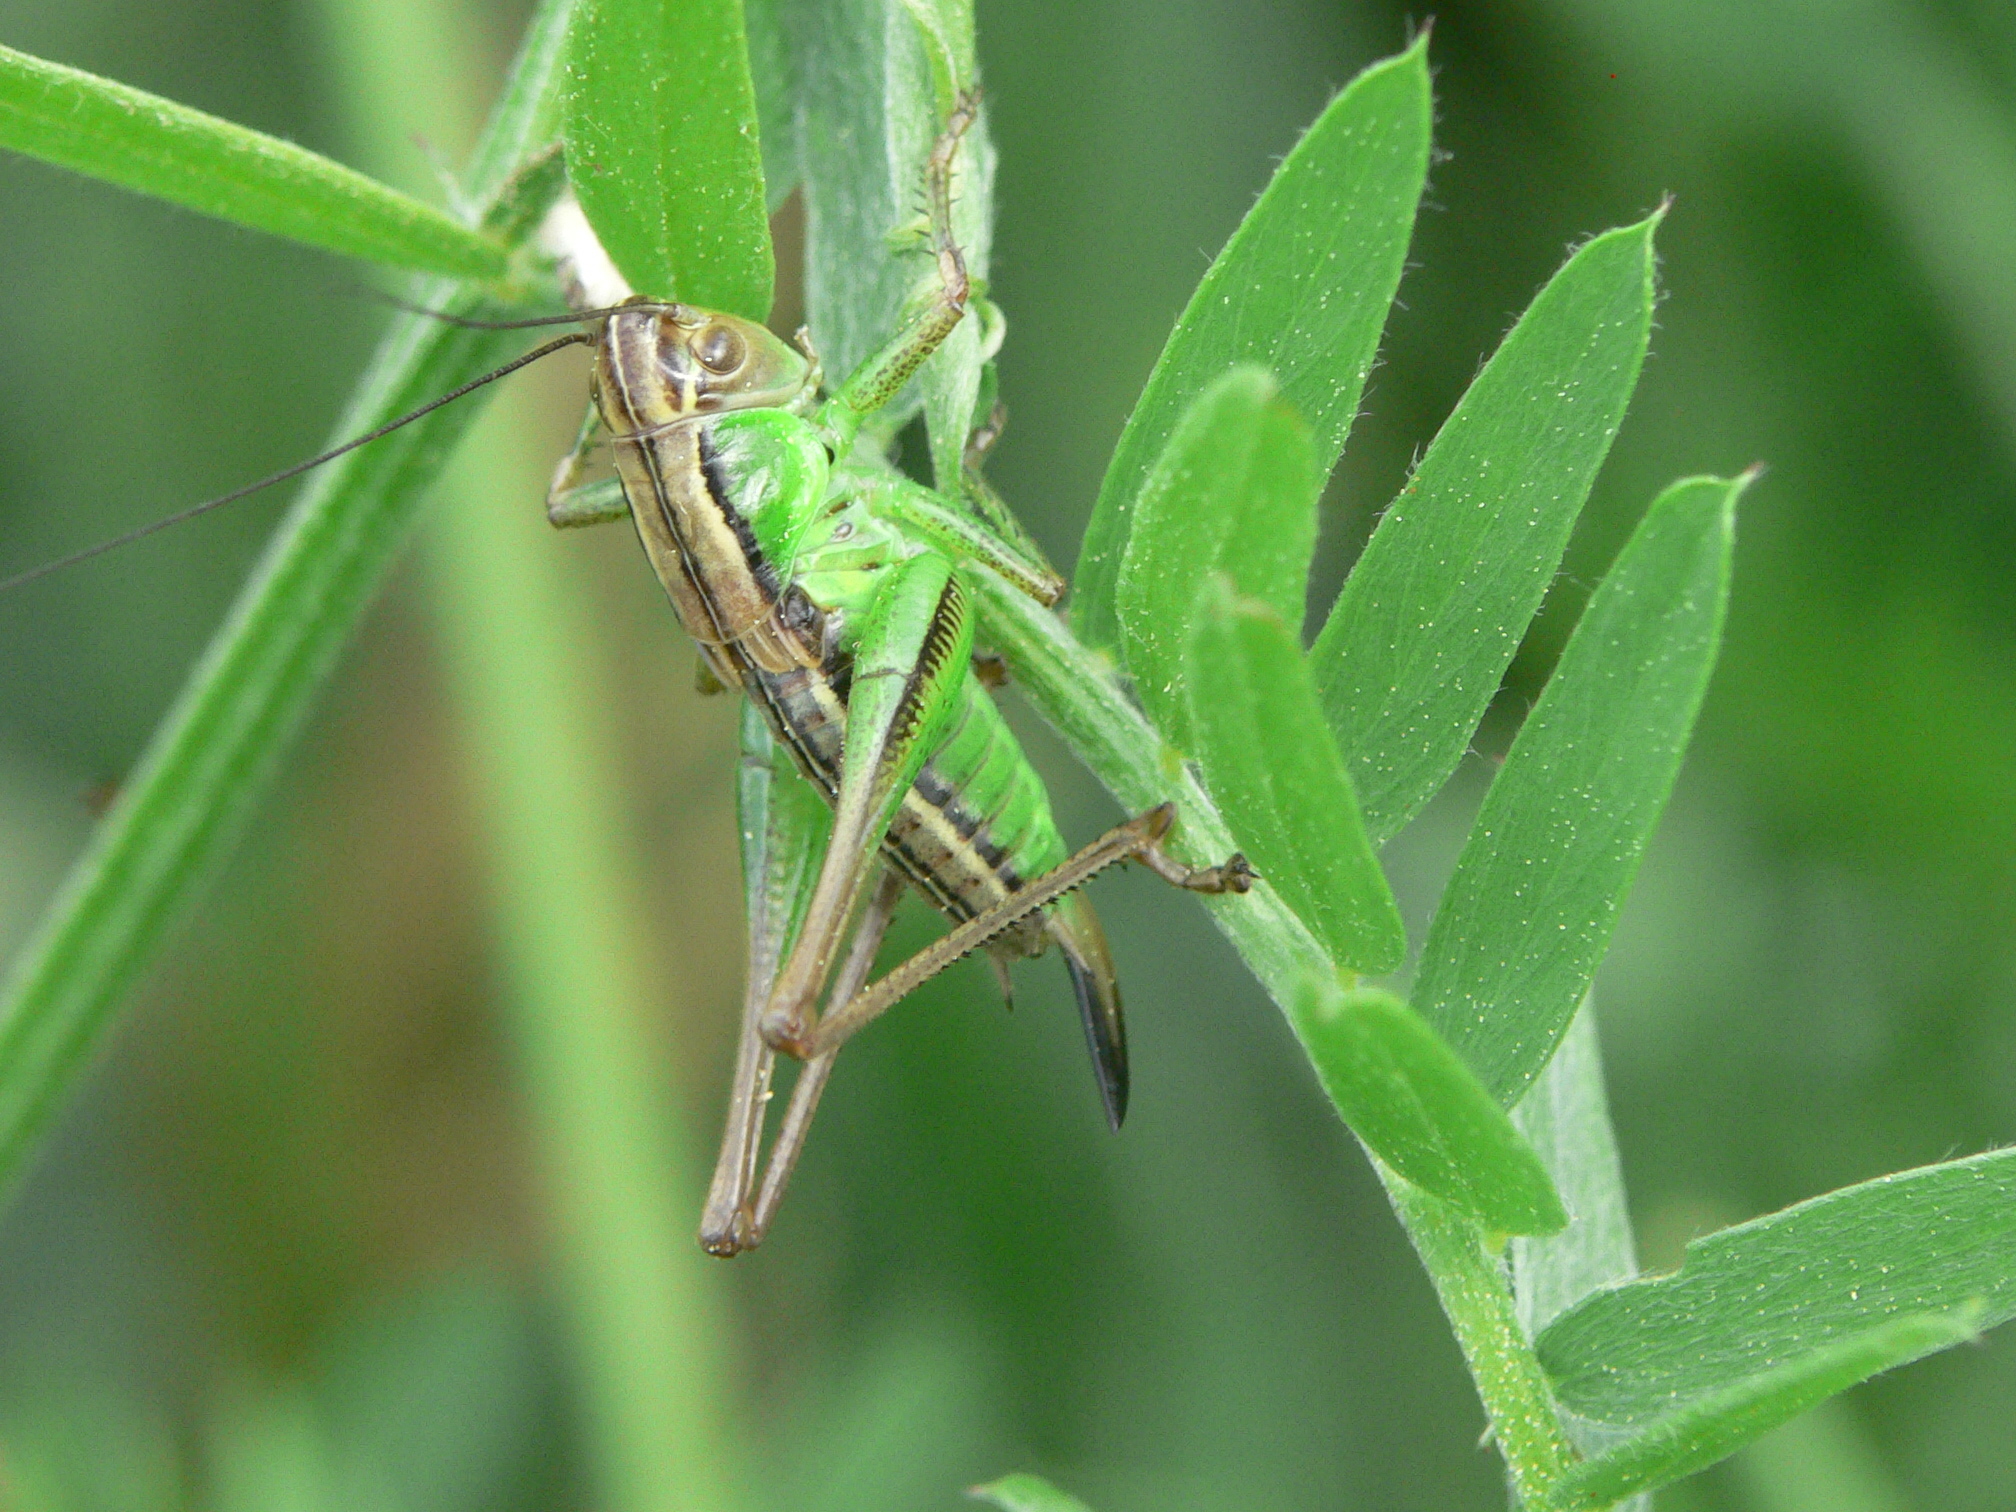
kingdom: Animalia
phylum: Arthropoda
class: Insecta
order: Orthoptera
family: Tettigoniidae
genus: Roeseliana
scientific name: Roeseliana roeselii
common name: Roesel's bush cricket
